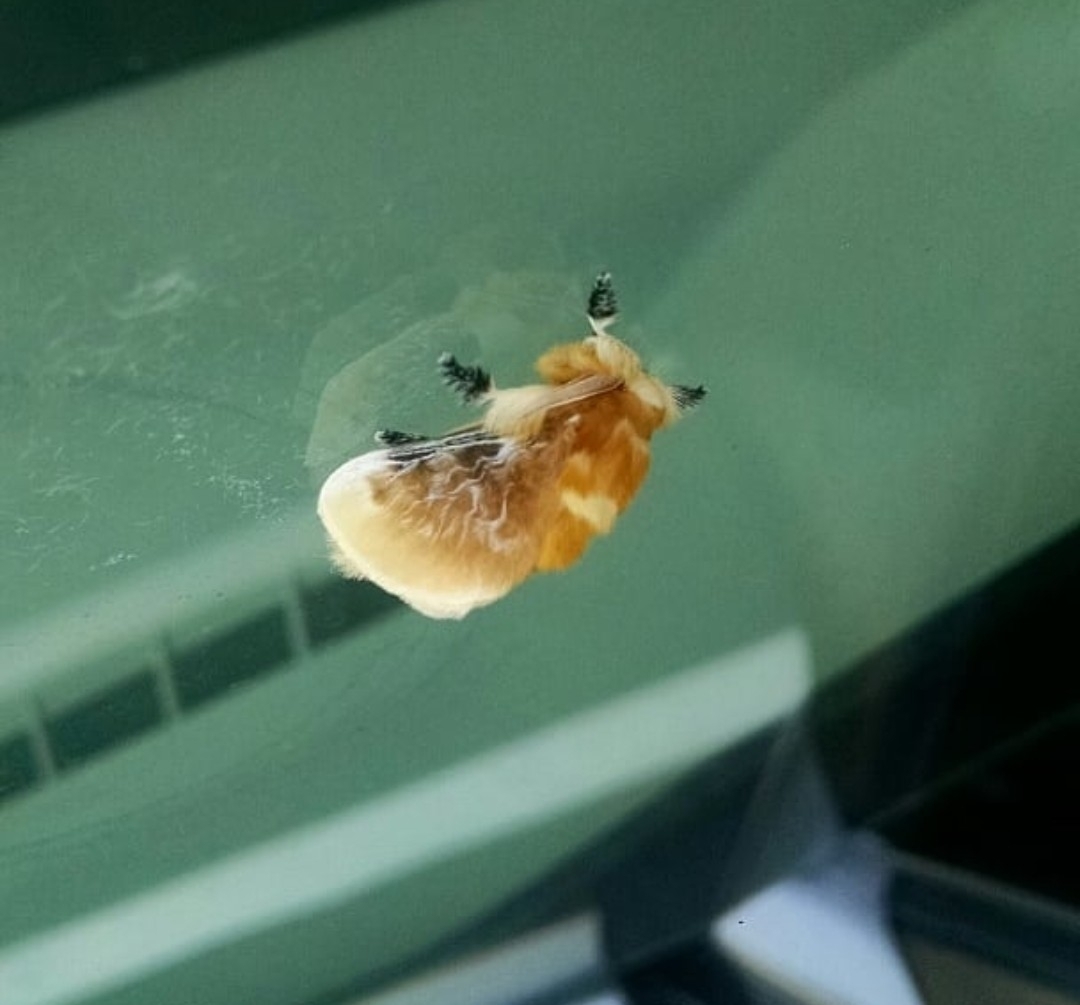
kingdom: Animalia
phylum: Arthropoda
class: Insecta
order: Lepidoptera
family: Megalopygidae
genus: Megalopyge
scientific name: Megalopyge opercularis
